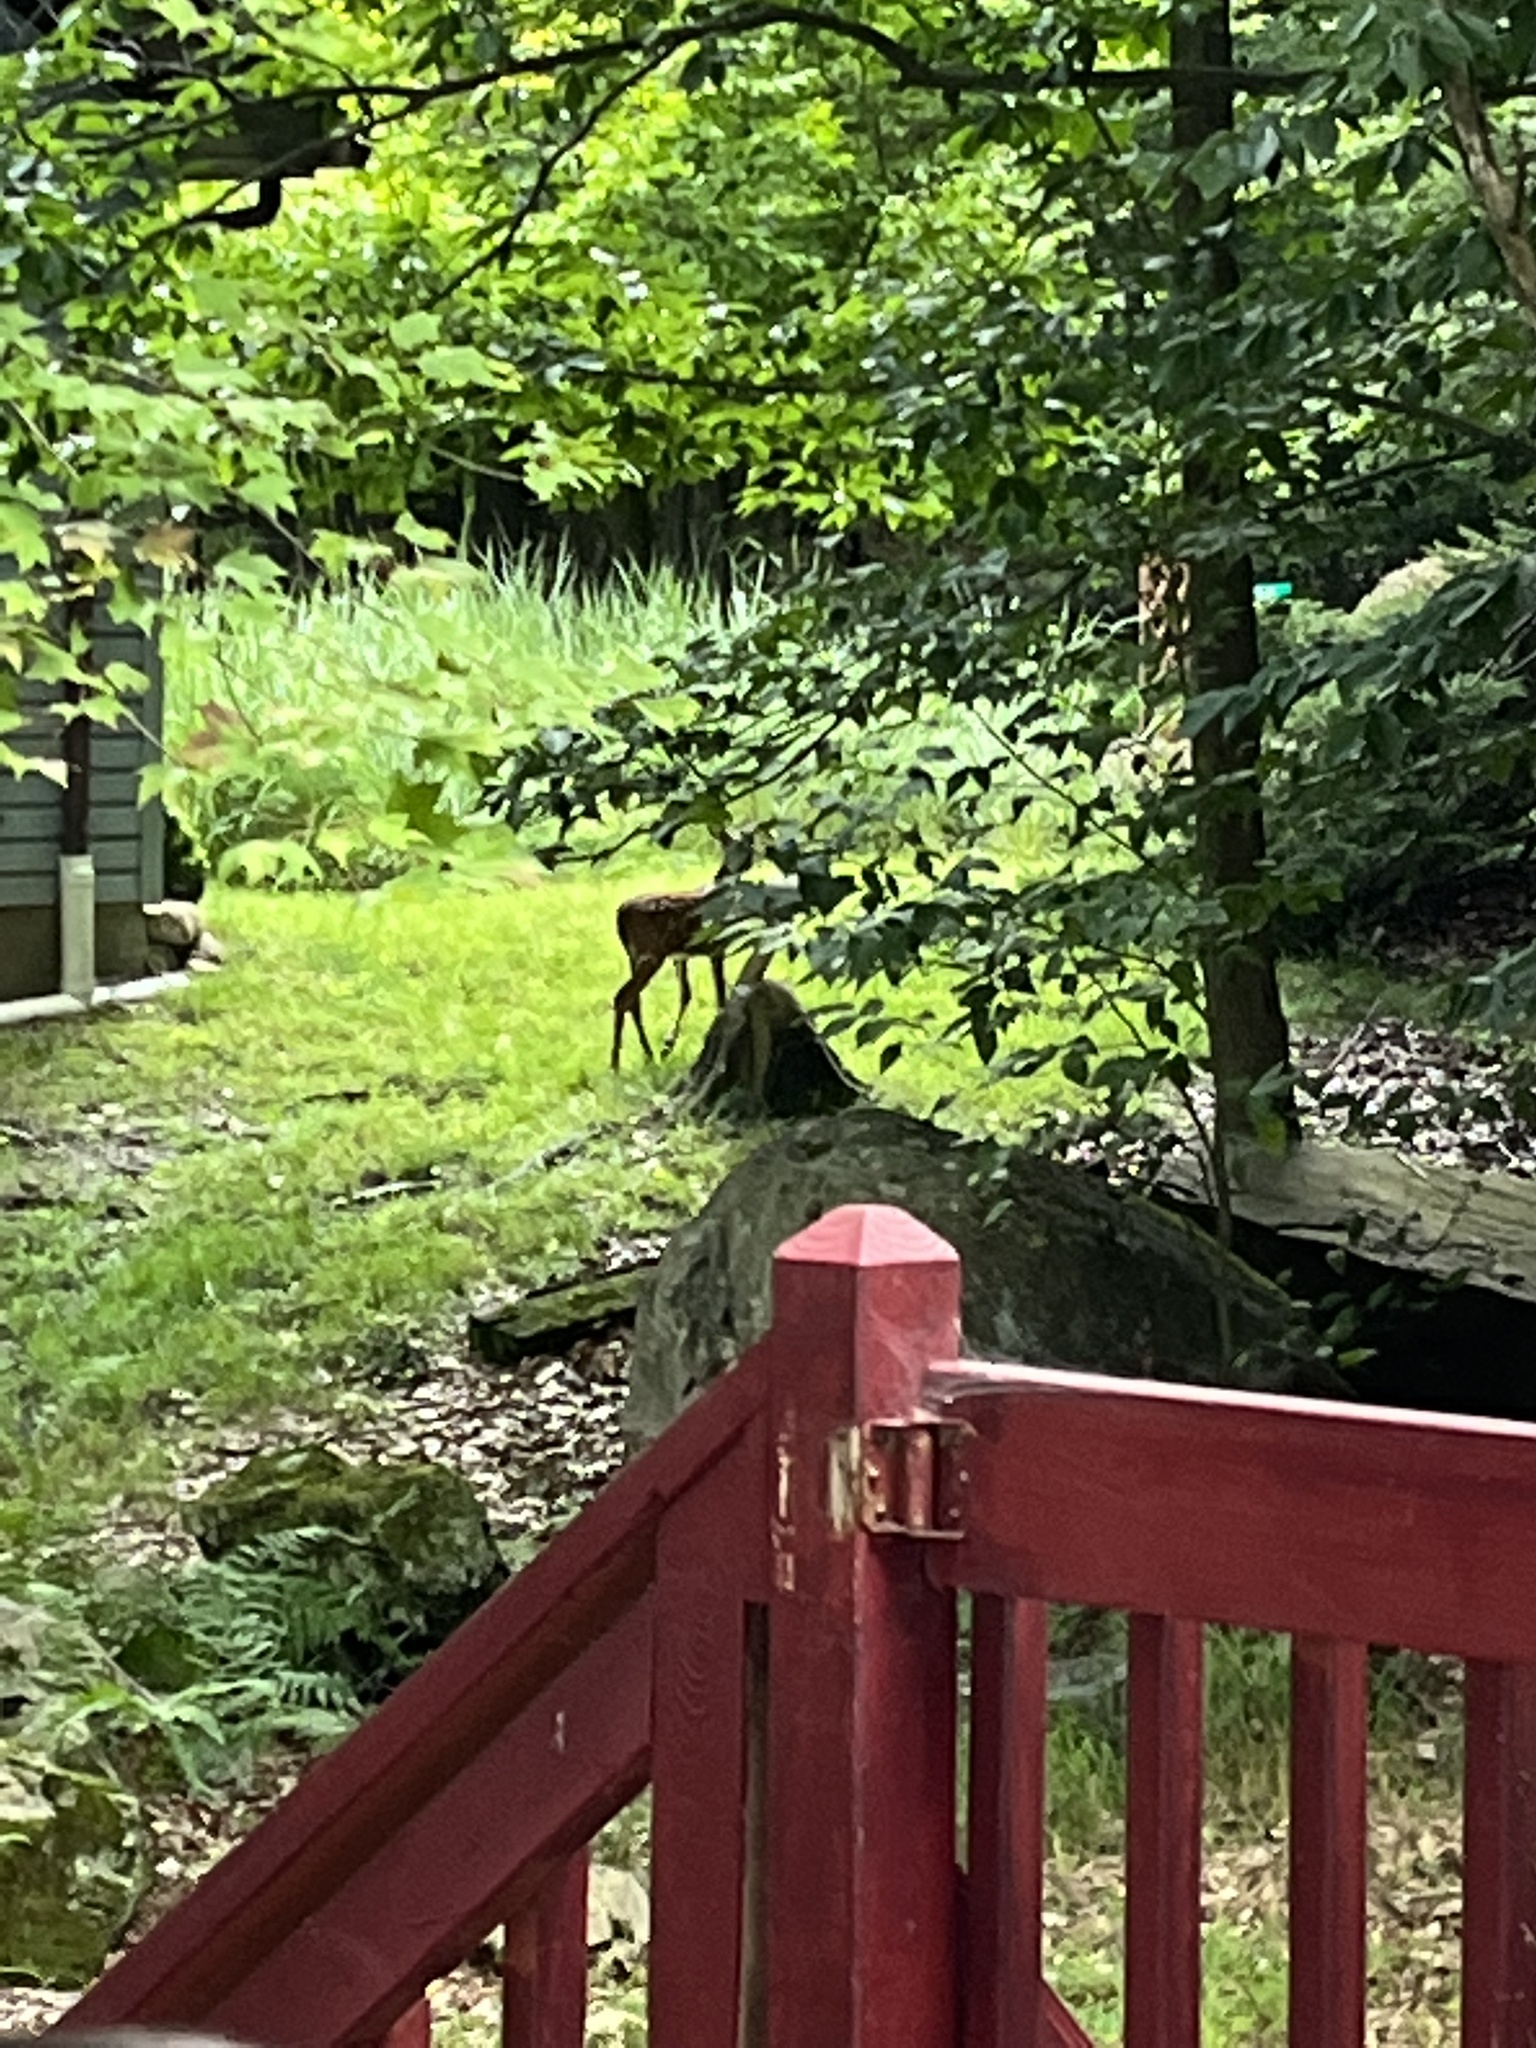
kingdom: Animalia
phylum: Chordata
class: Mammalia
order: Artiodactyla
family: Cervidae
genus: Odocoileus
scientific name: Odocoileus virginianus
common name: White-tailed deer
